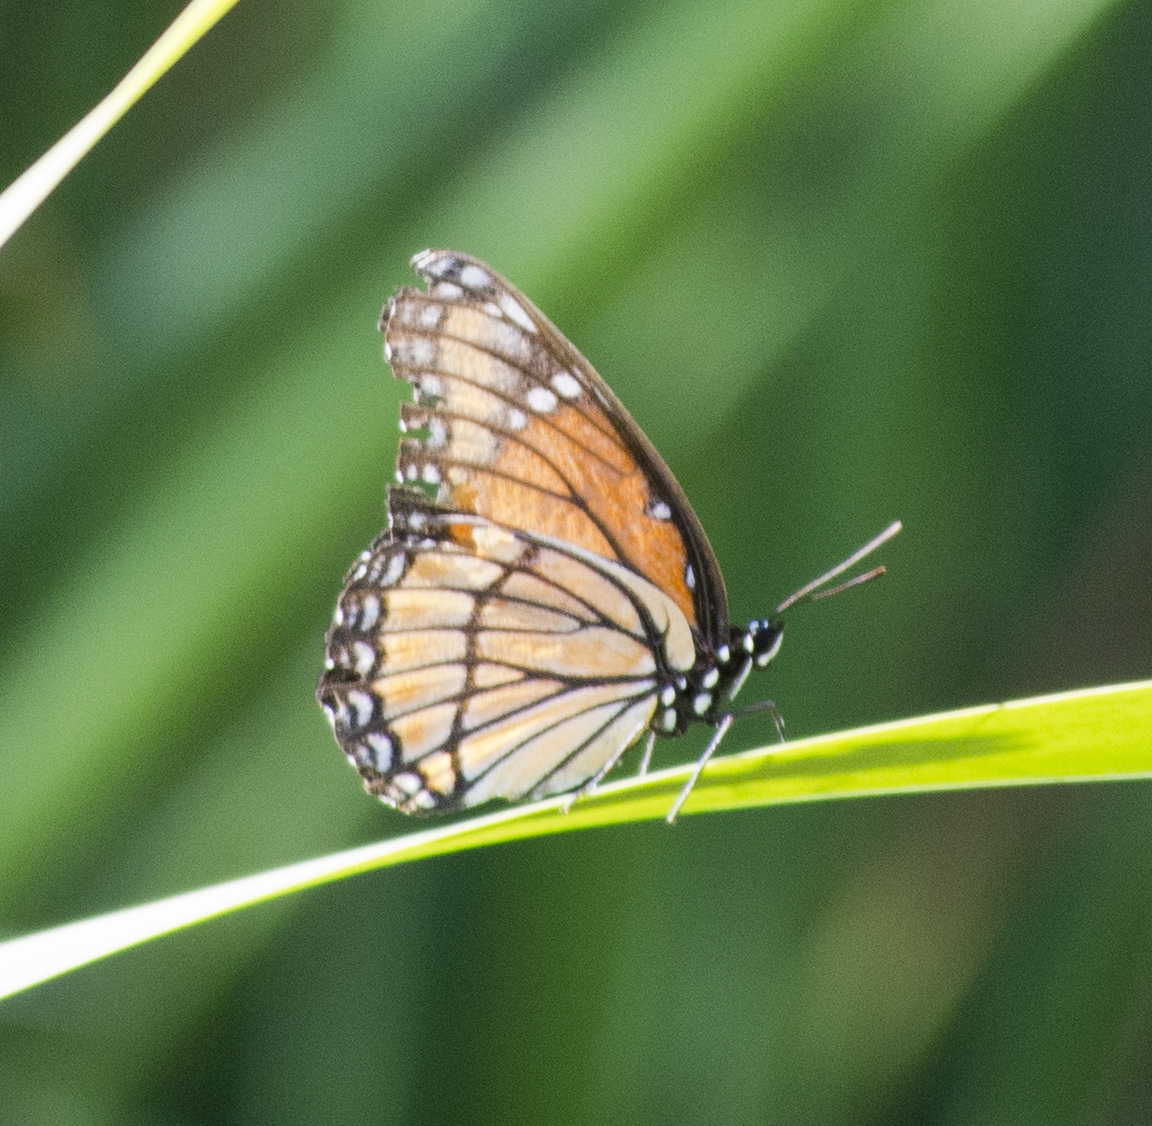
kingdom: Animalia
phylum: Arthropoda
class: Insecta
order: Lepidoptera
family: Nymphalidae
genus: Limenitis
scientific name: Limenitis archippus
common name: Viceroy
